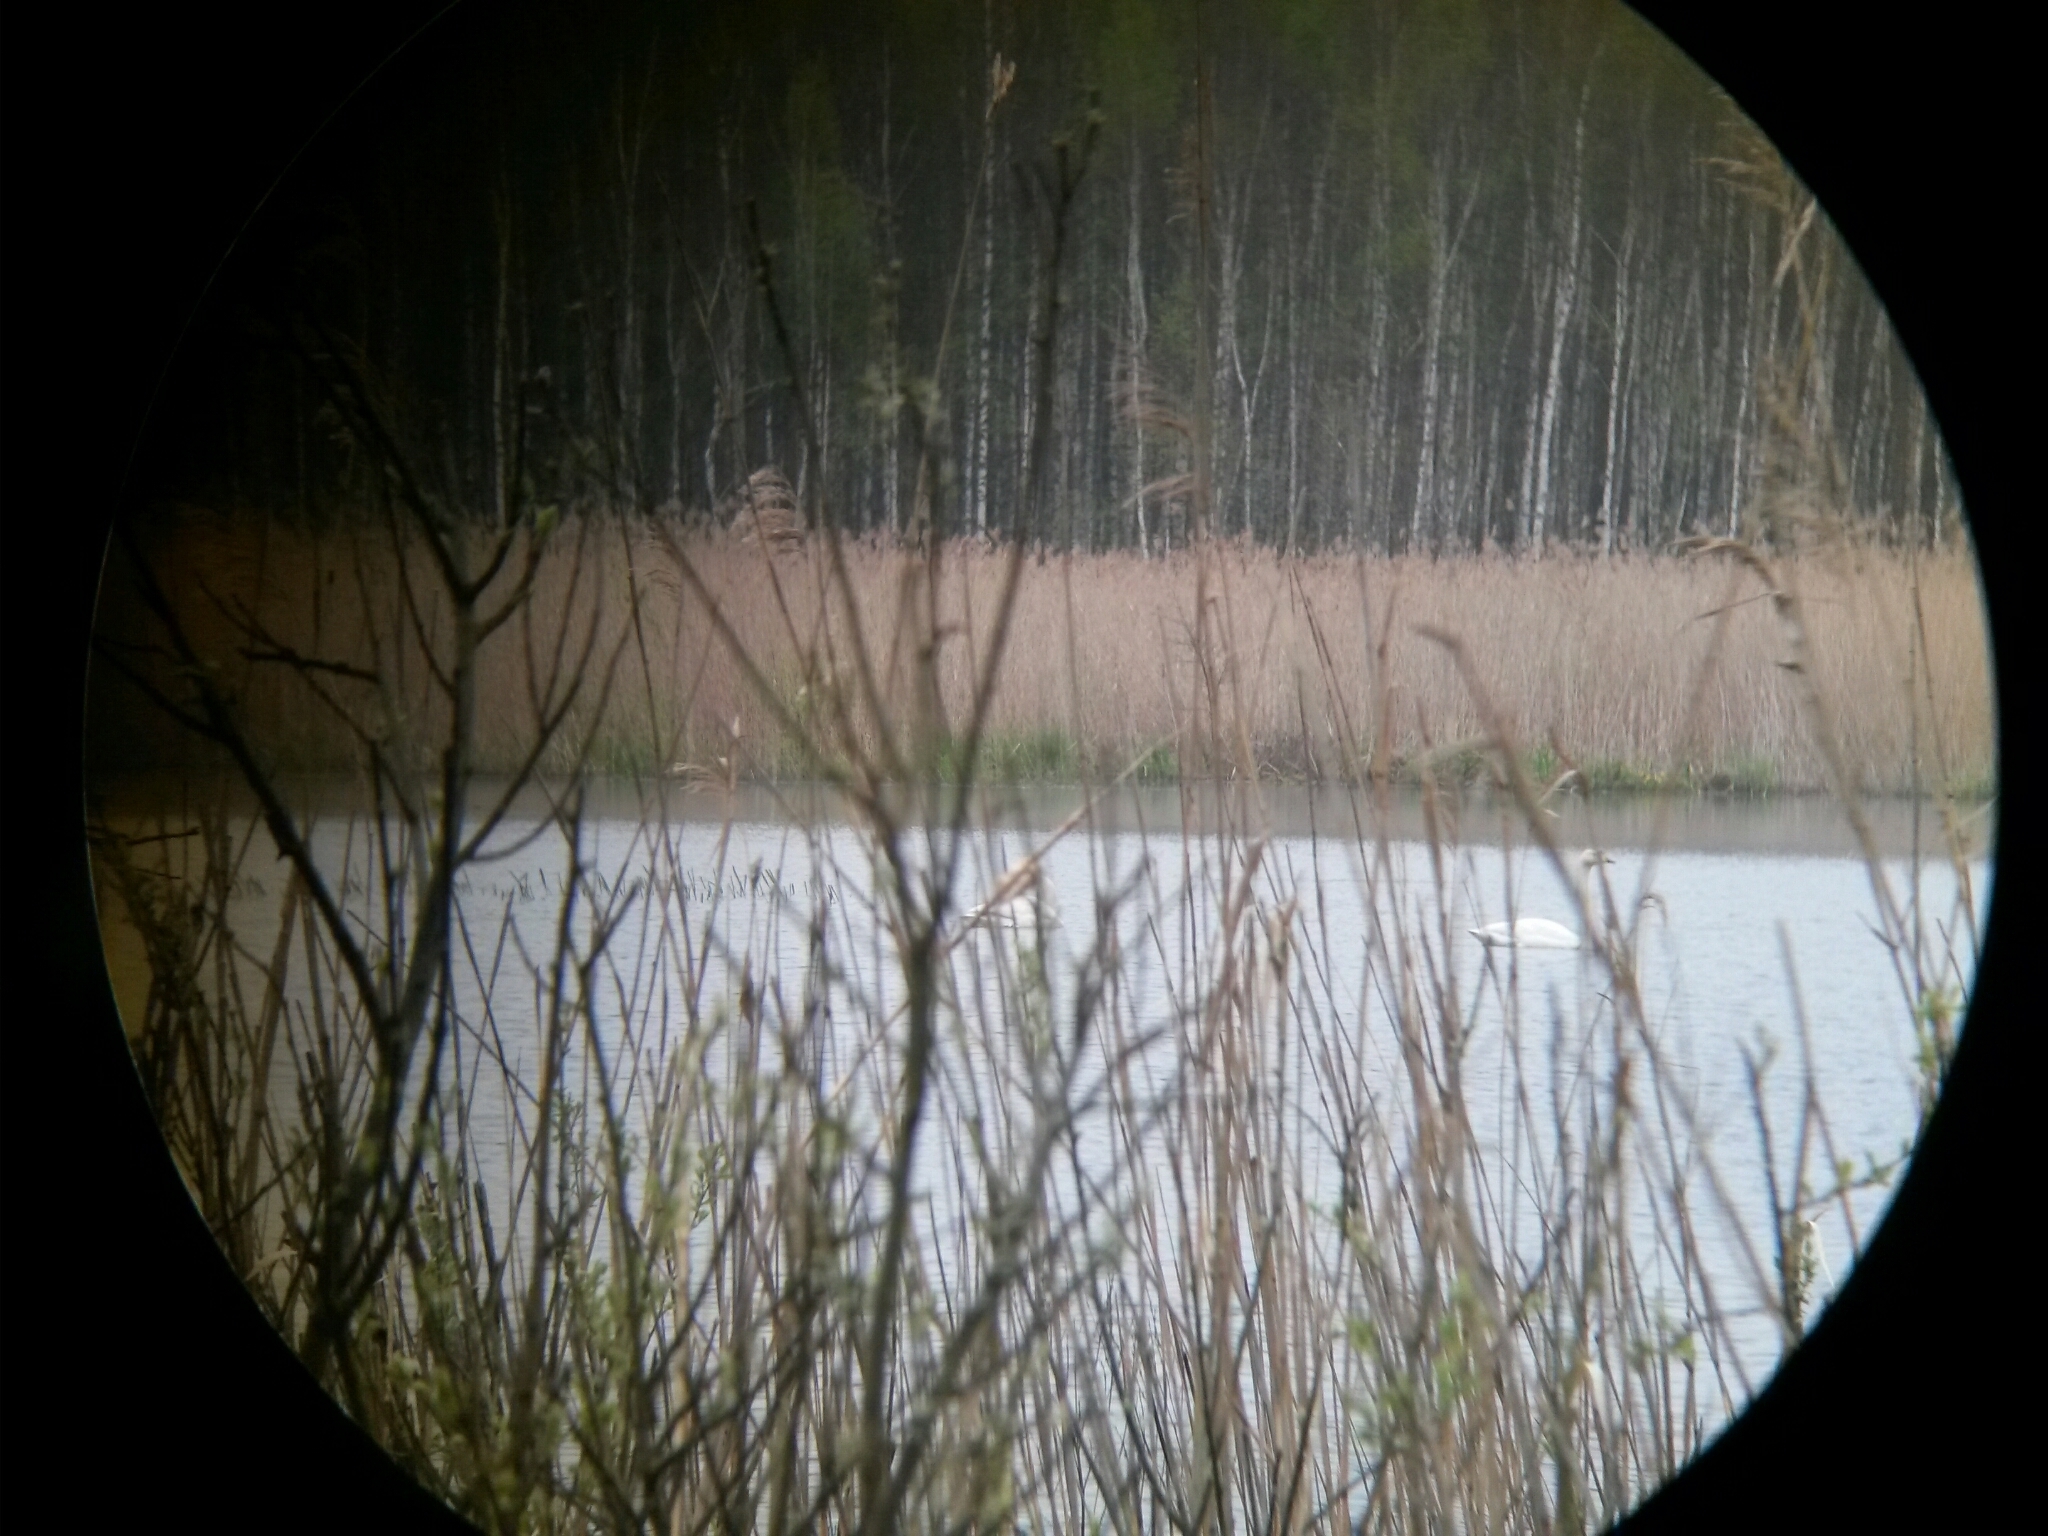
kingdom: Animalia
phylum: Chordata
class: Aves
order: Anseriformes
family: Anatidae
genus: Cygnus
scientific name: Cygnus cygnus
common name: Whooper swan
